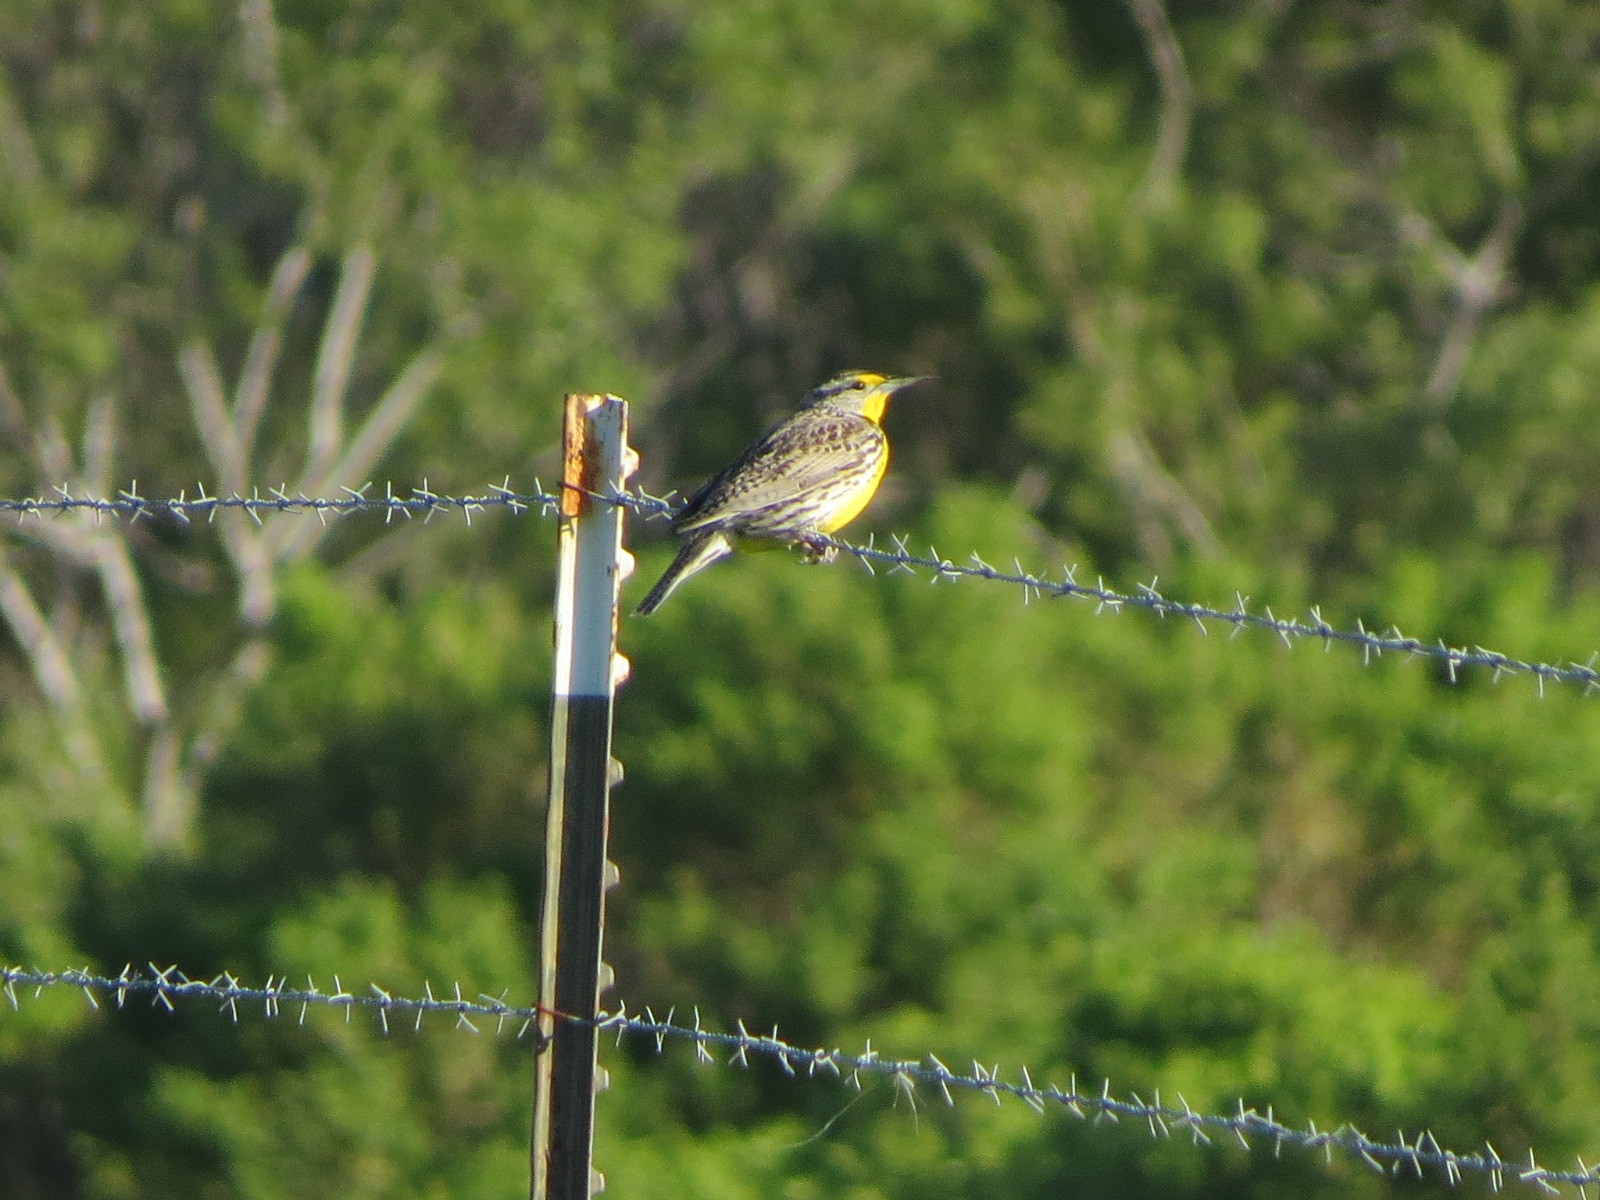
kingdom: Animalia
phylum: Chordata
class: Aves
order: Passeriformes
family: Icteridae
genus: Sturnella
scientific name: Sturnella neglecta
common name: Western meadowlark
